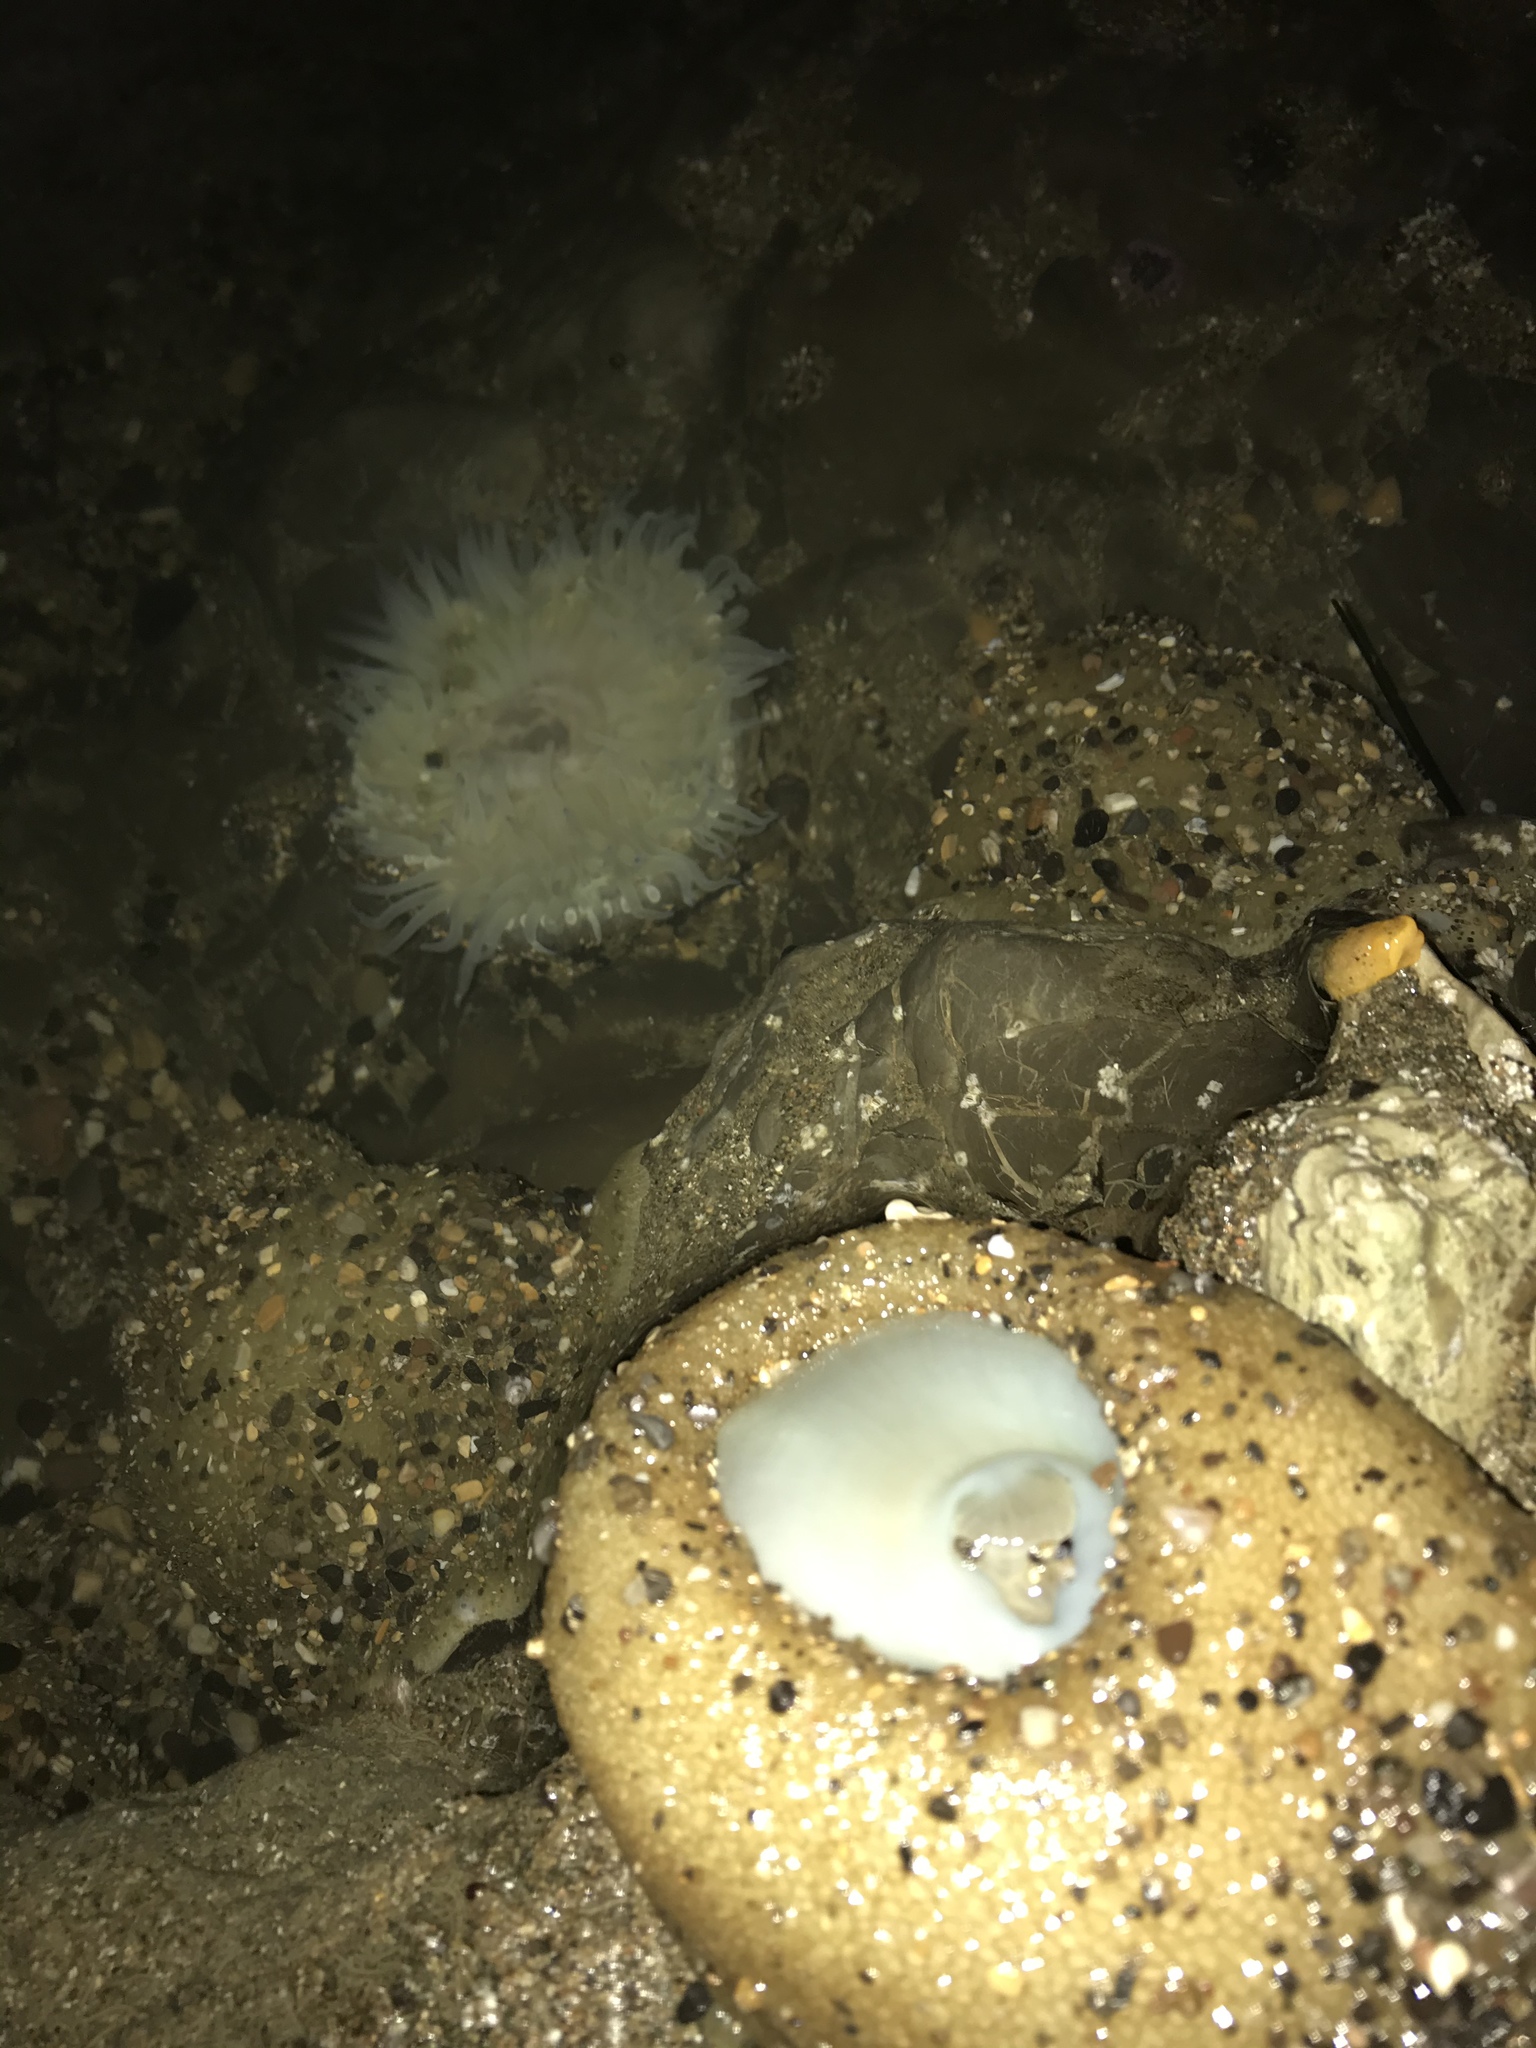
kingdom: Animalia
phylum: Cnidaria
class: Anthozoa
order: Actiniaria
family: Actiniidae
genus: Anthopleura
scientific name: Anthopleura sola
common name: Sun anemone
